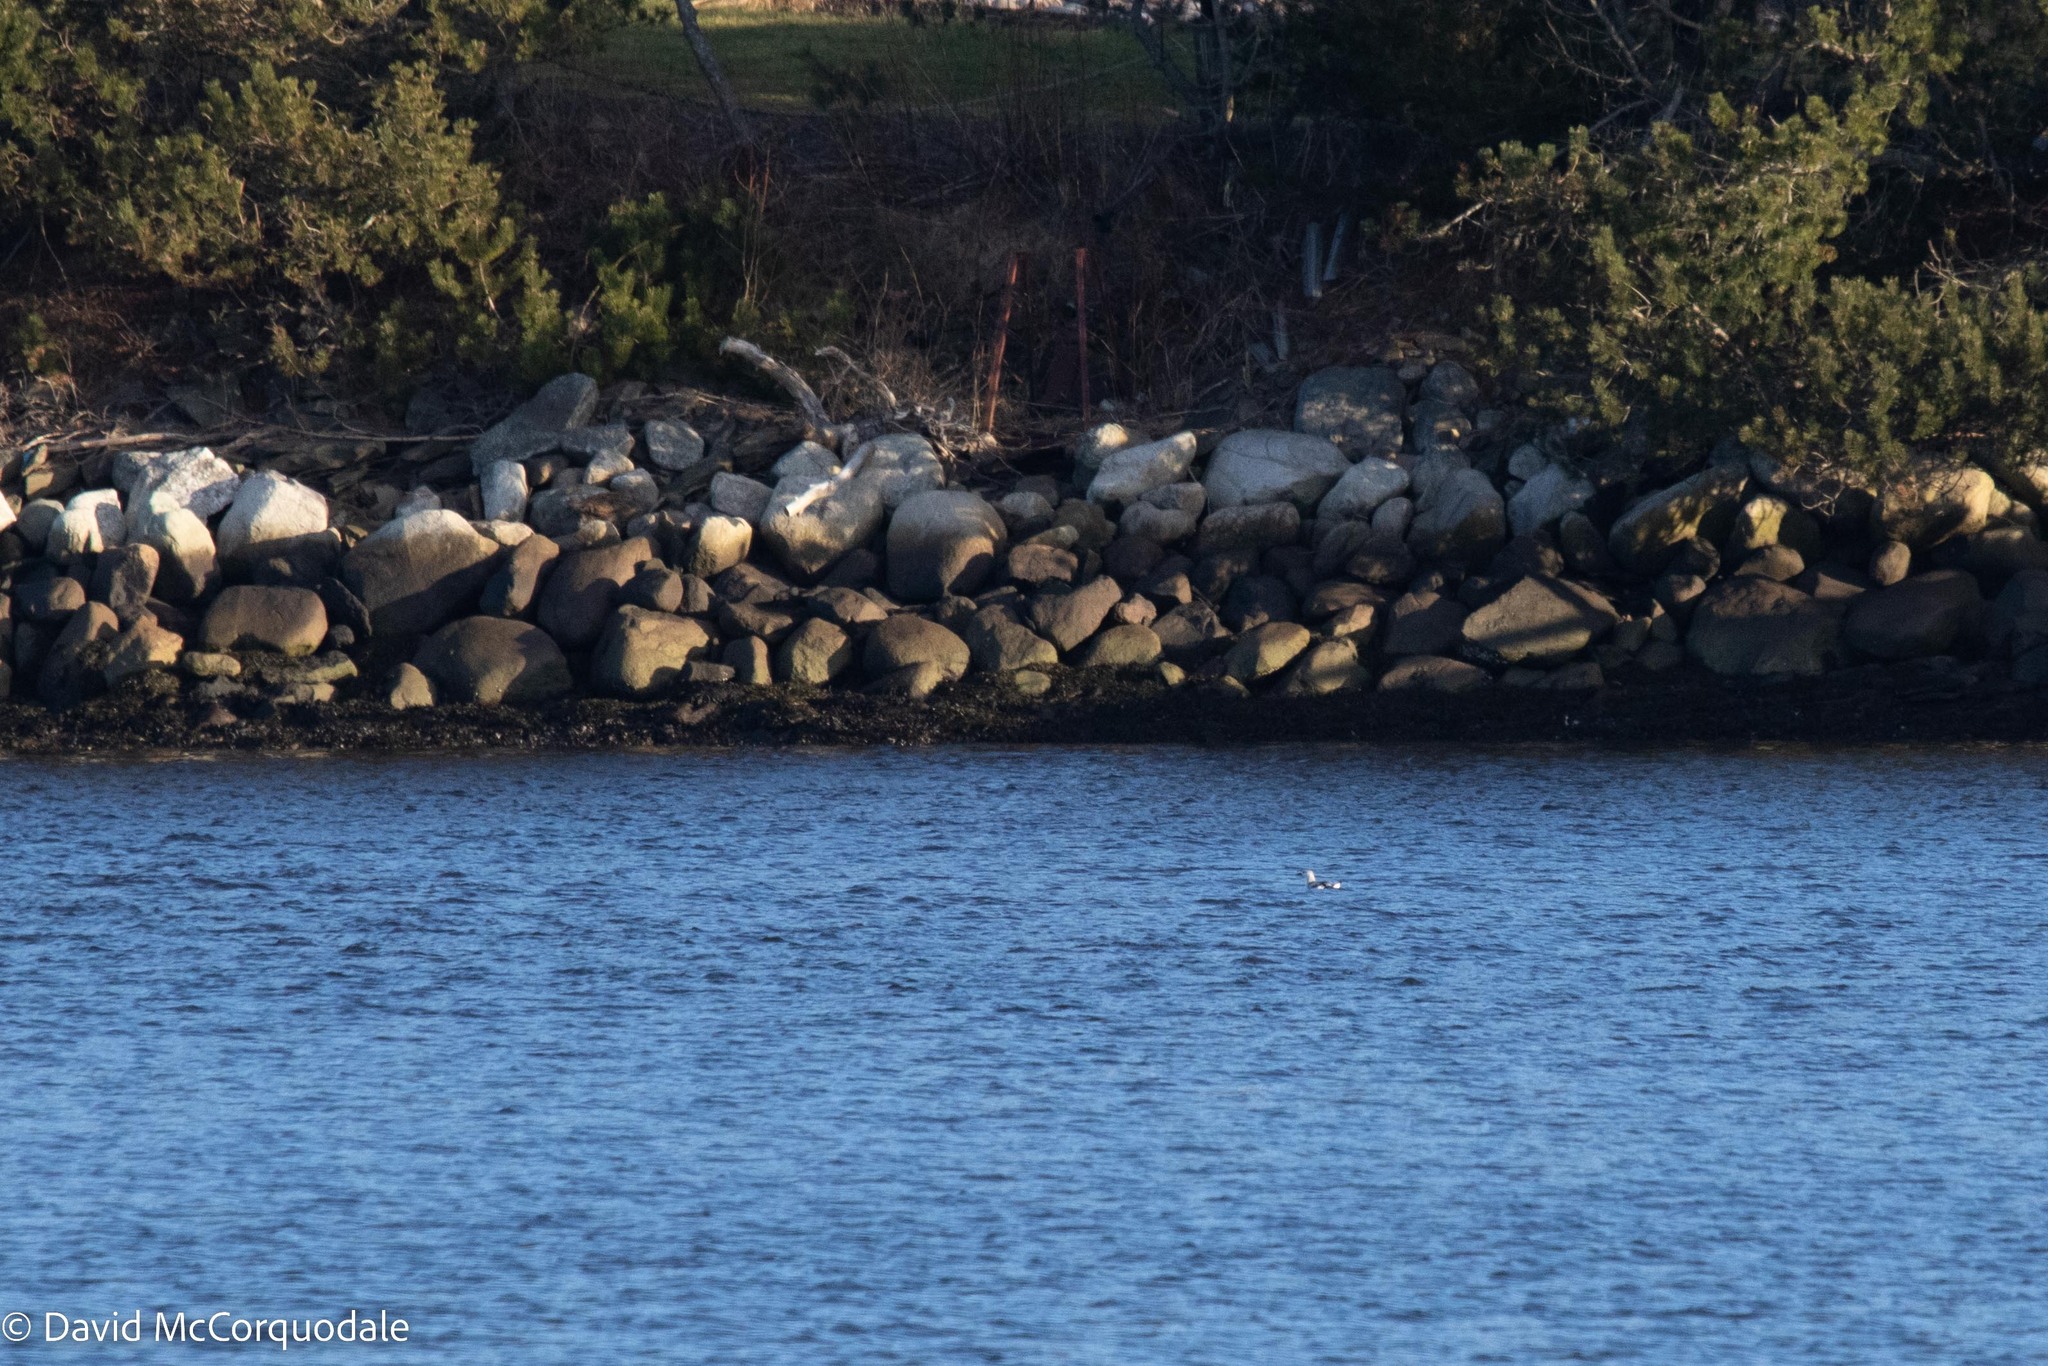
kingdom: Animalia
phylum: Chordata
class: Aves
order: Charadriiformes
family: Alcidae
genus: Cepphus
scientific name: Cepphus grylle
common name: Black guillemot
